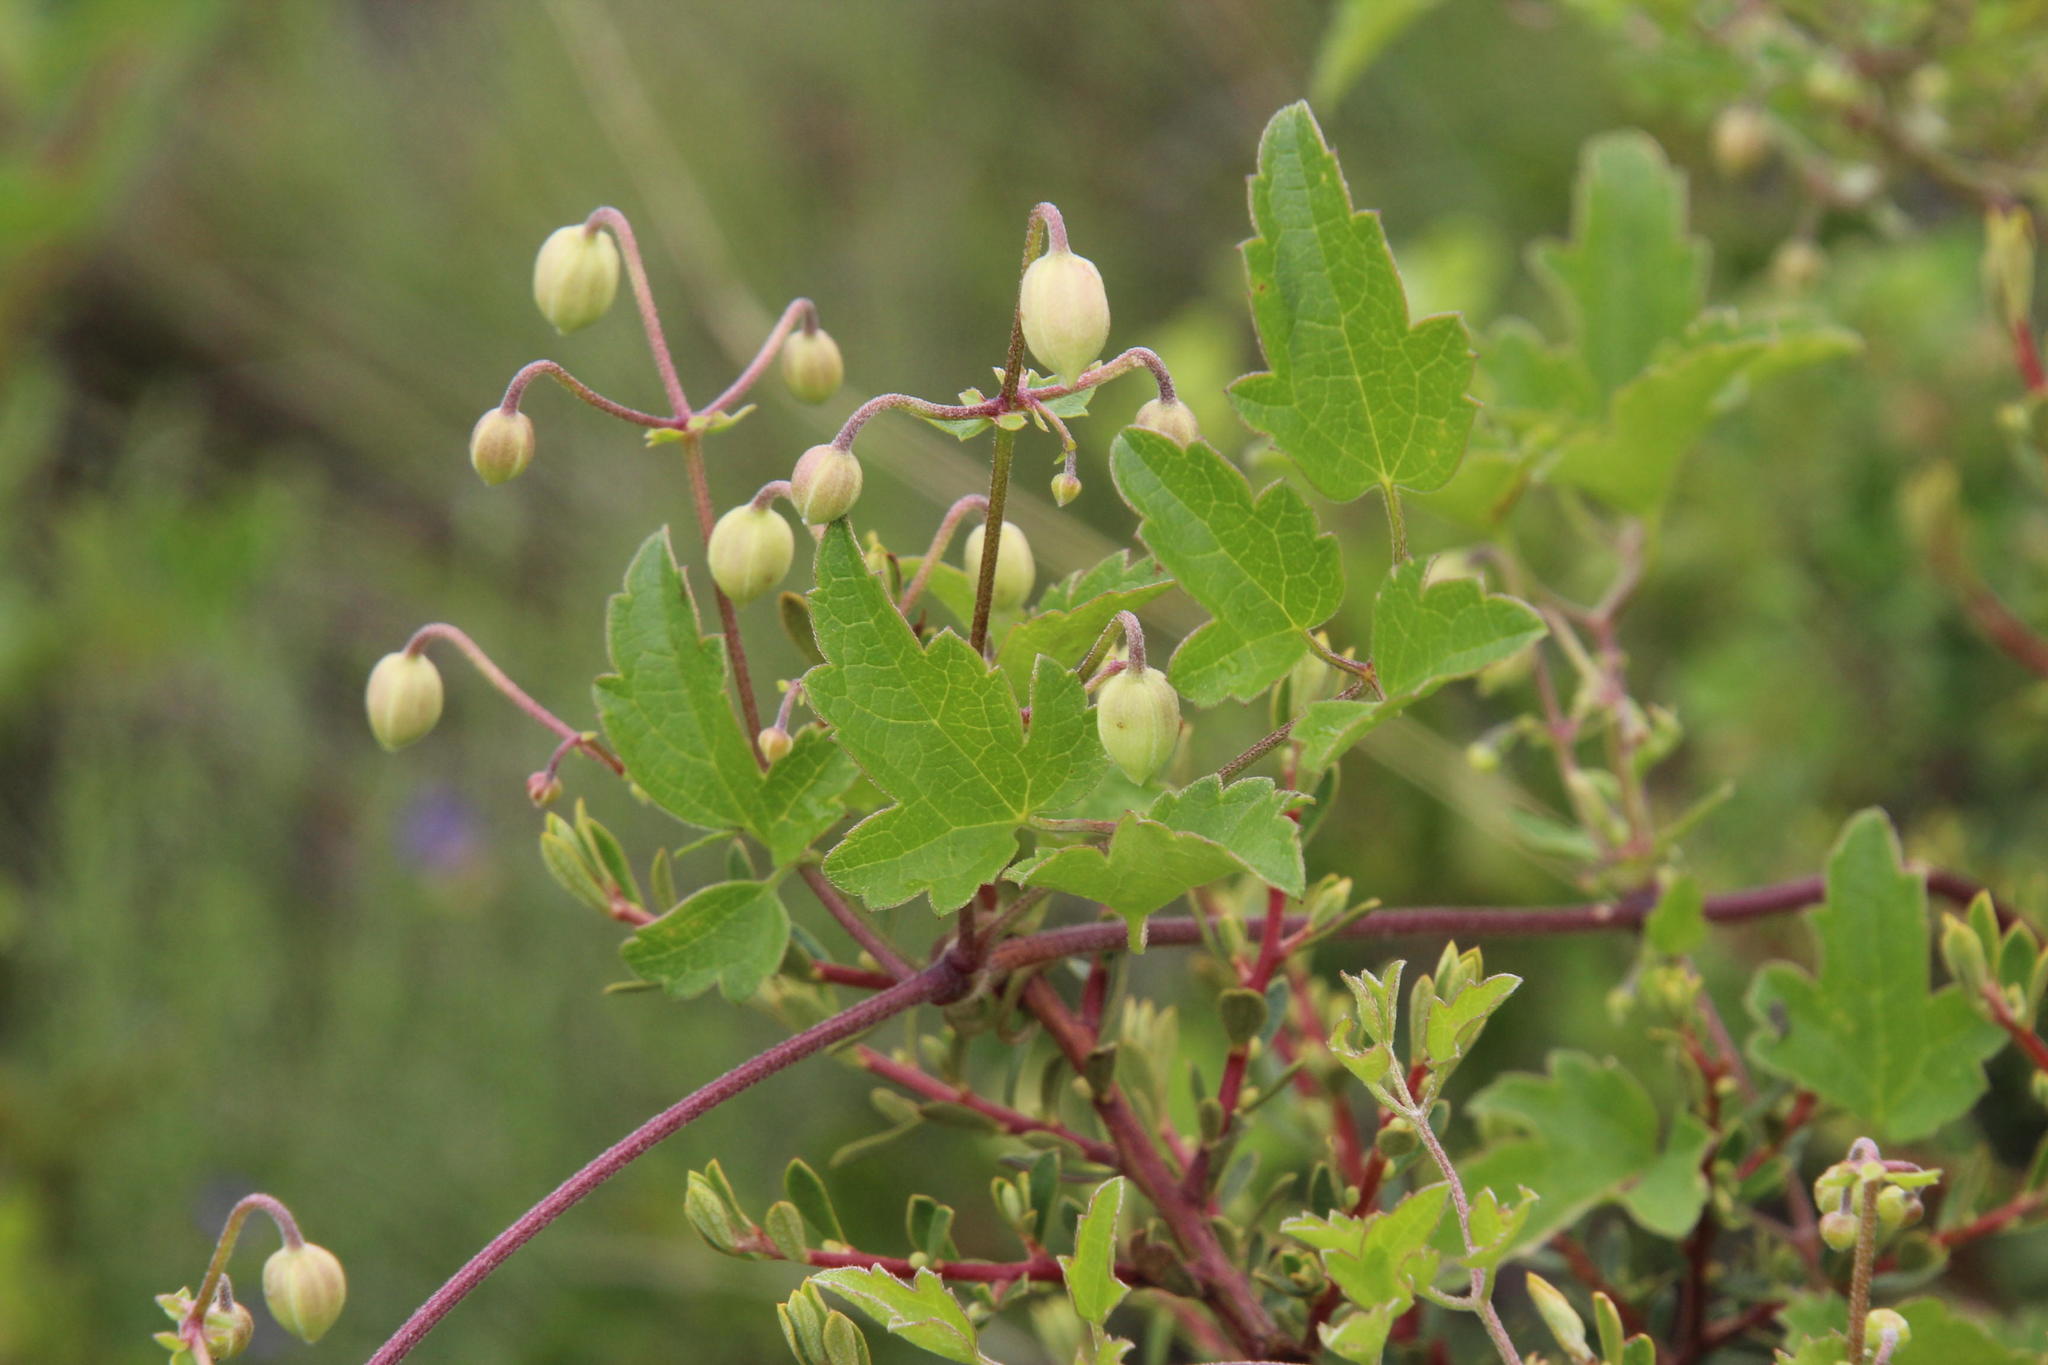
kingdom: Plantae
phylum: Tracheophyta
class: Magnoliopsida
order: Ranunculales
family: Ranunculaceae
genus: Clematis
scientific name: Clematis brachiata
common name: Traveler's-joy
